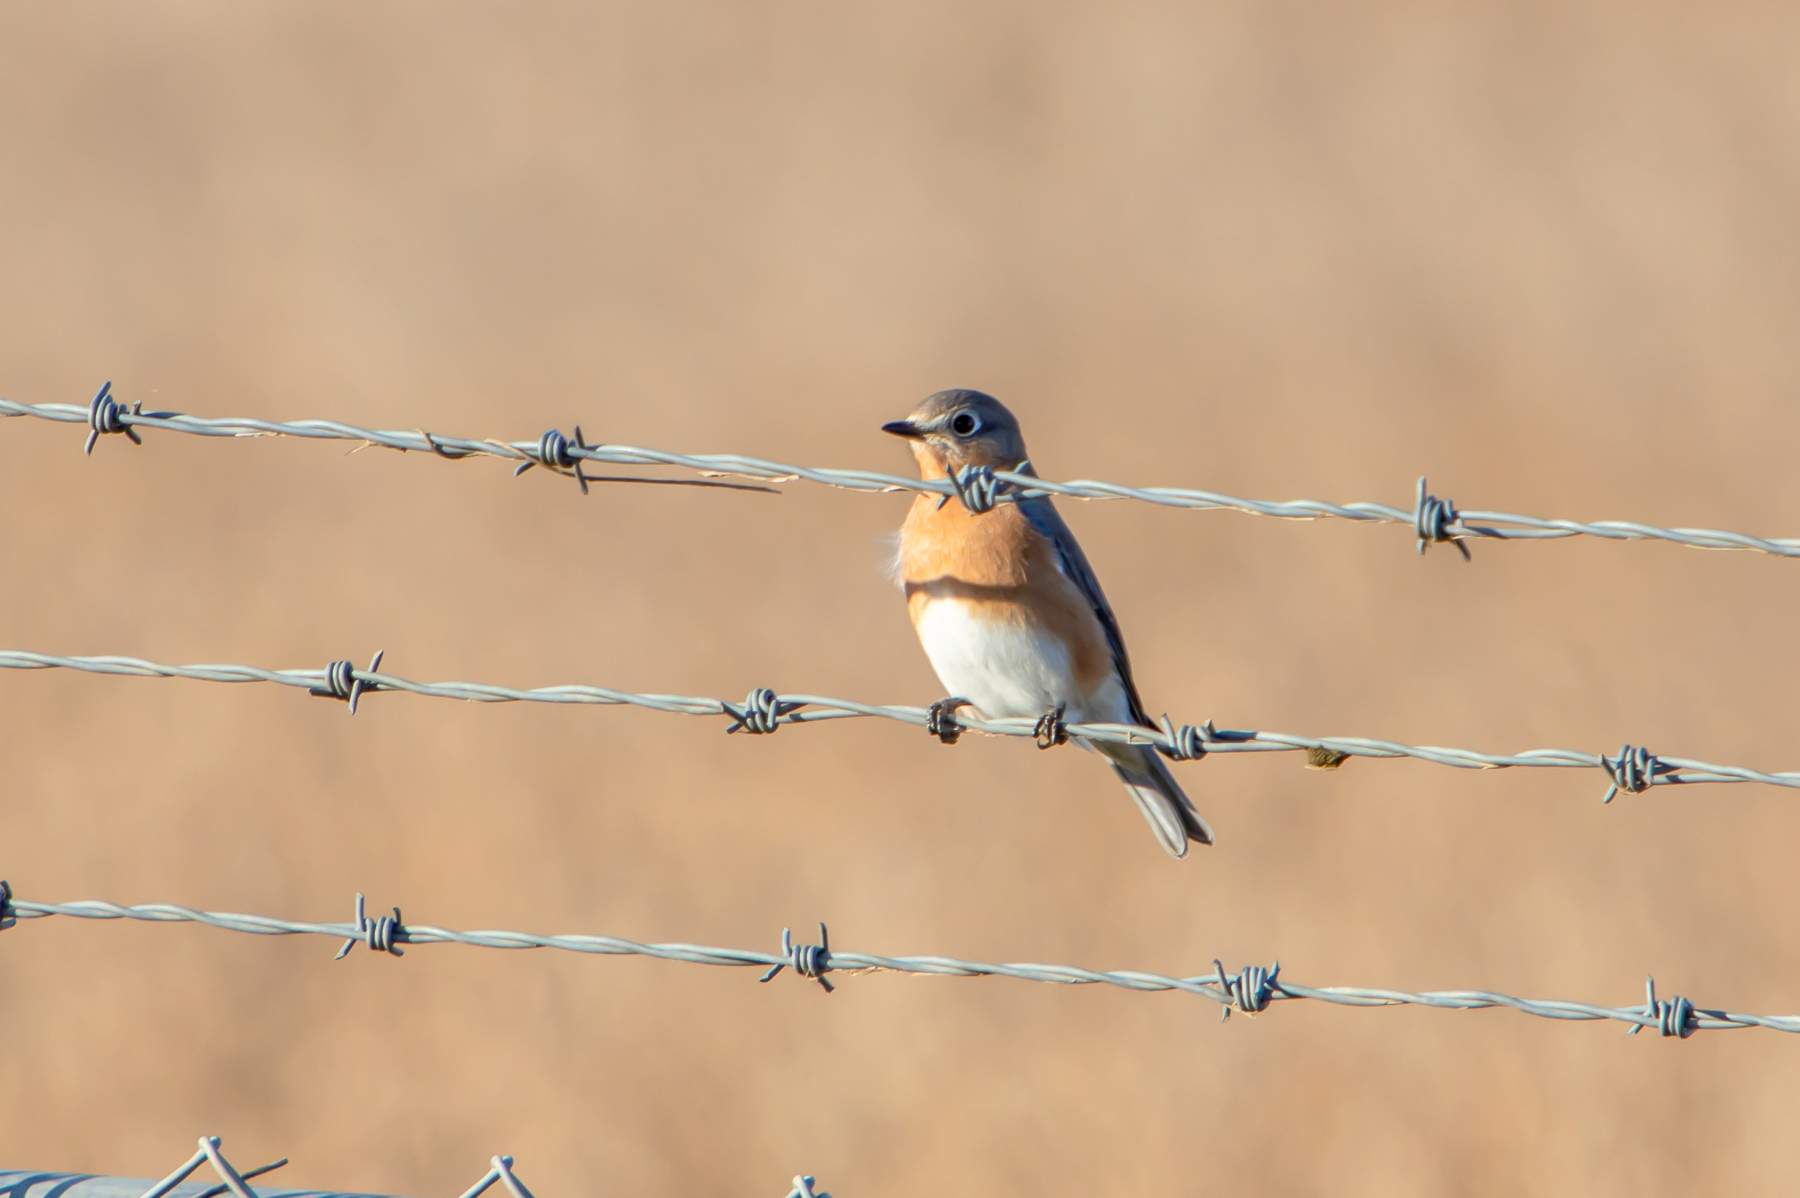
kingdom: Animalia
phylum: Chordata
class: Aves
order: Passeriformes
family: Turdidae
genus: Sialia
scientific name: Sialia sialis
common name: Eastern bluebird
